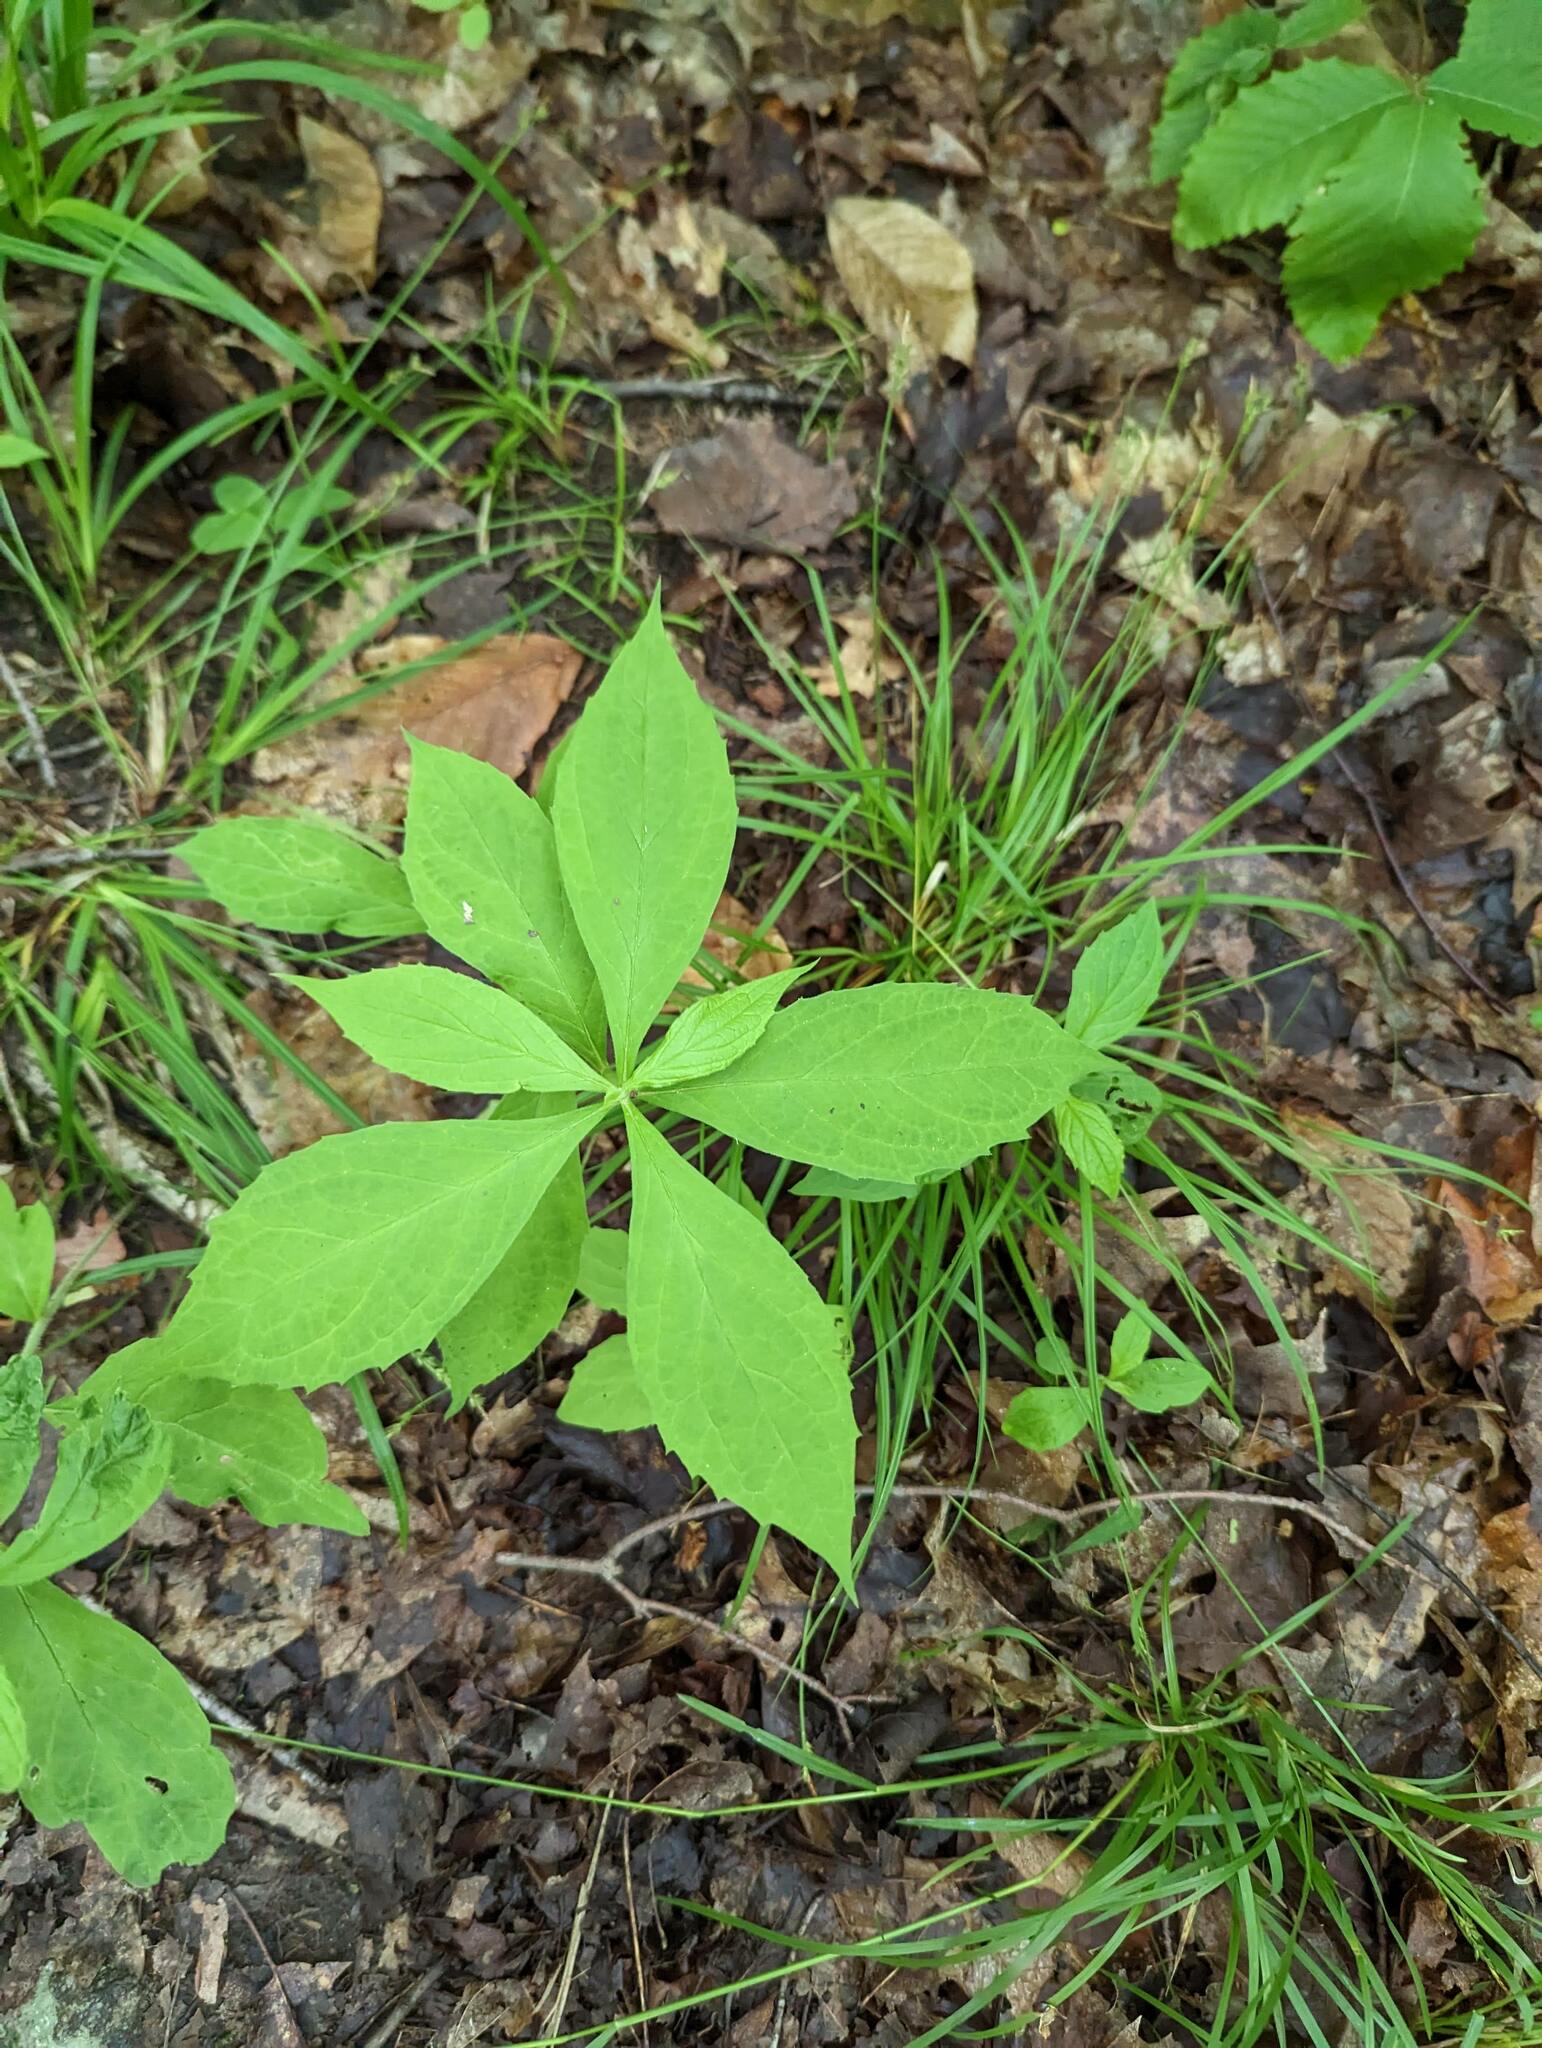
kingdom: Plantae
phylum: Tracheophyta
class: Magnoliopsida
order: Asterales
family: Asteraceae
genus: Oclemena
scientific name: Oclemena acuminata
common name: Mountain aster
